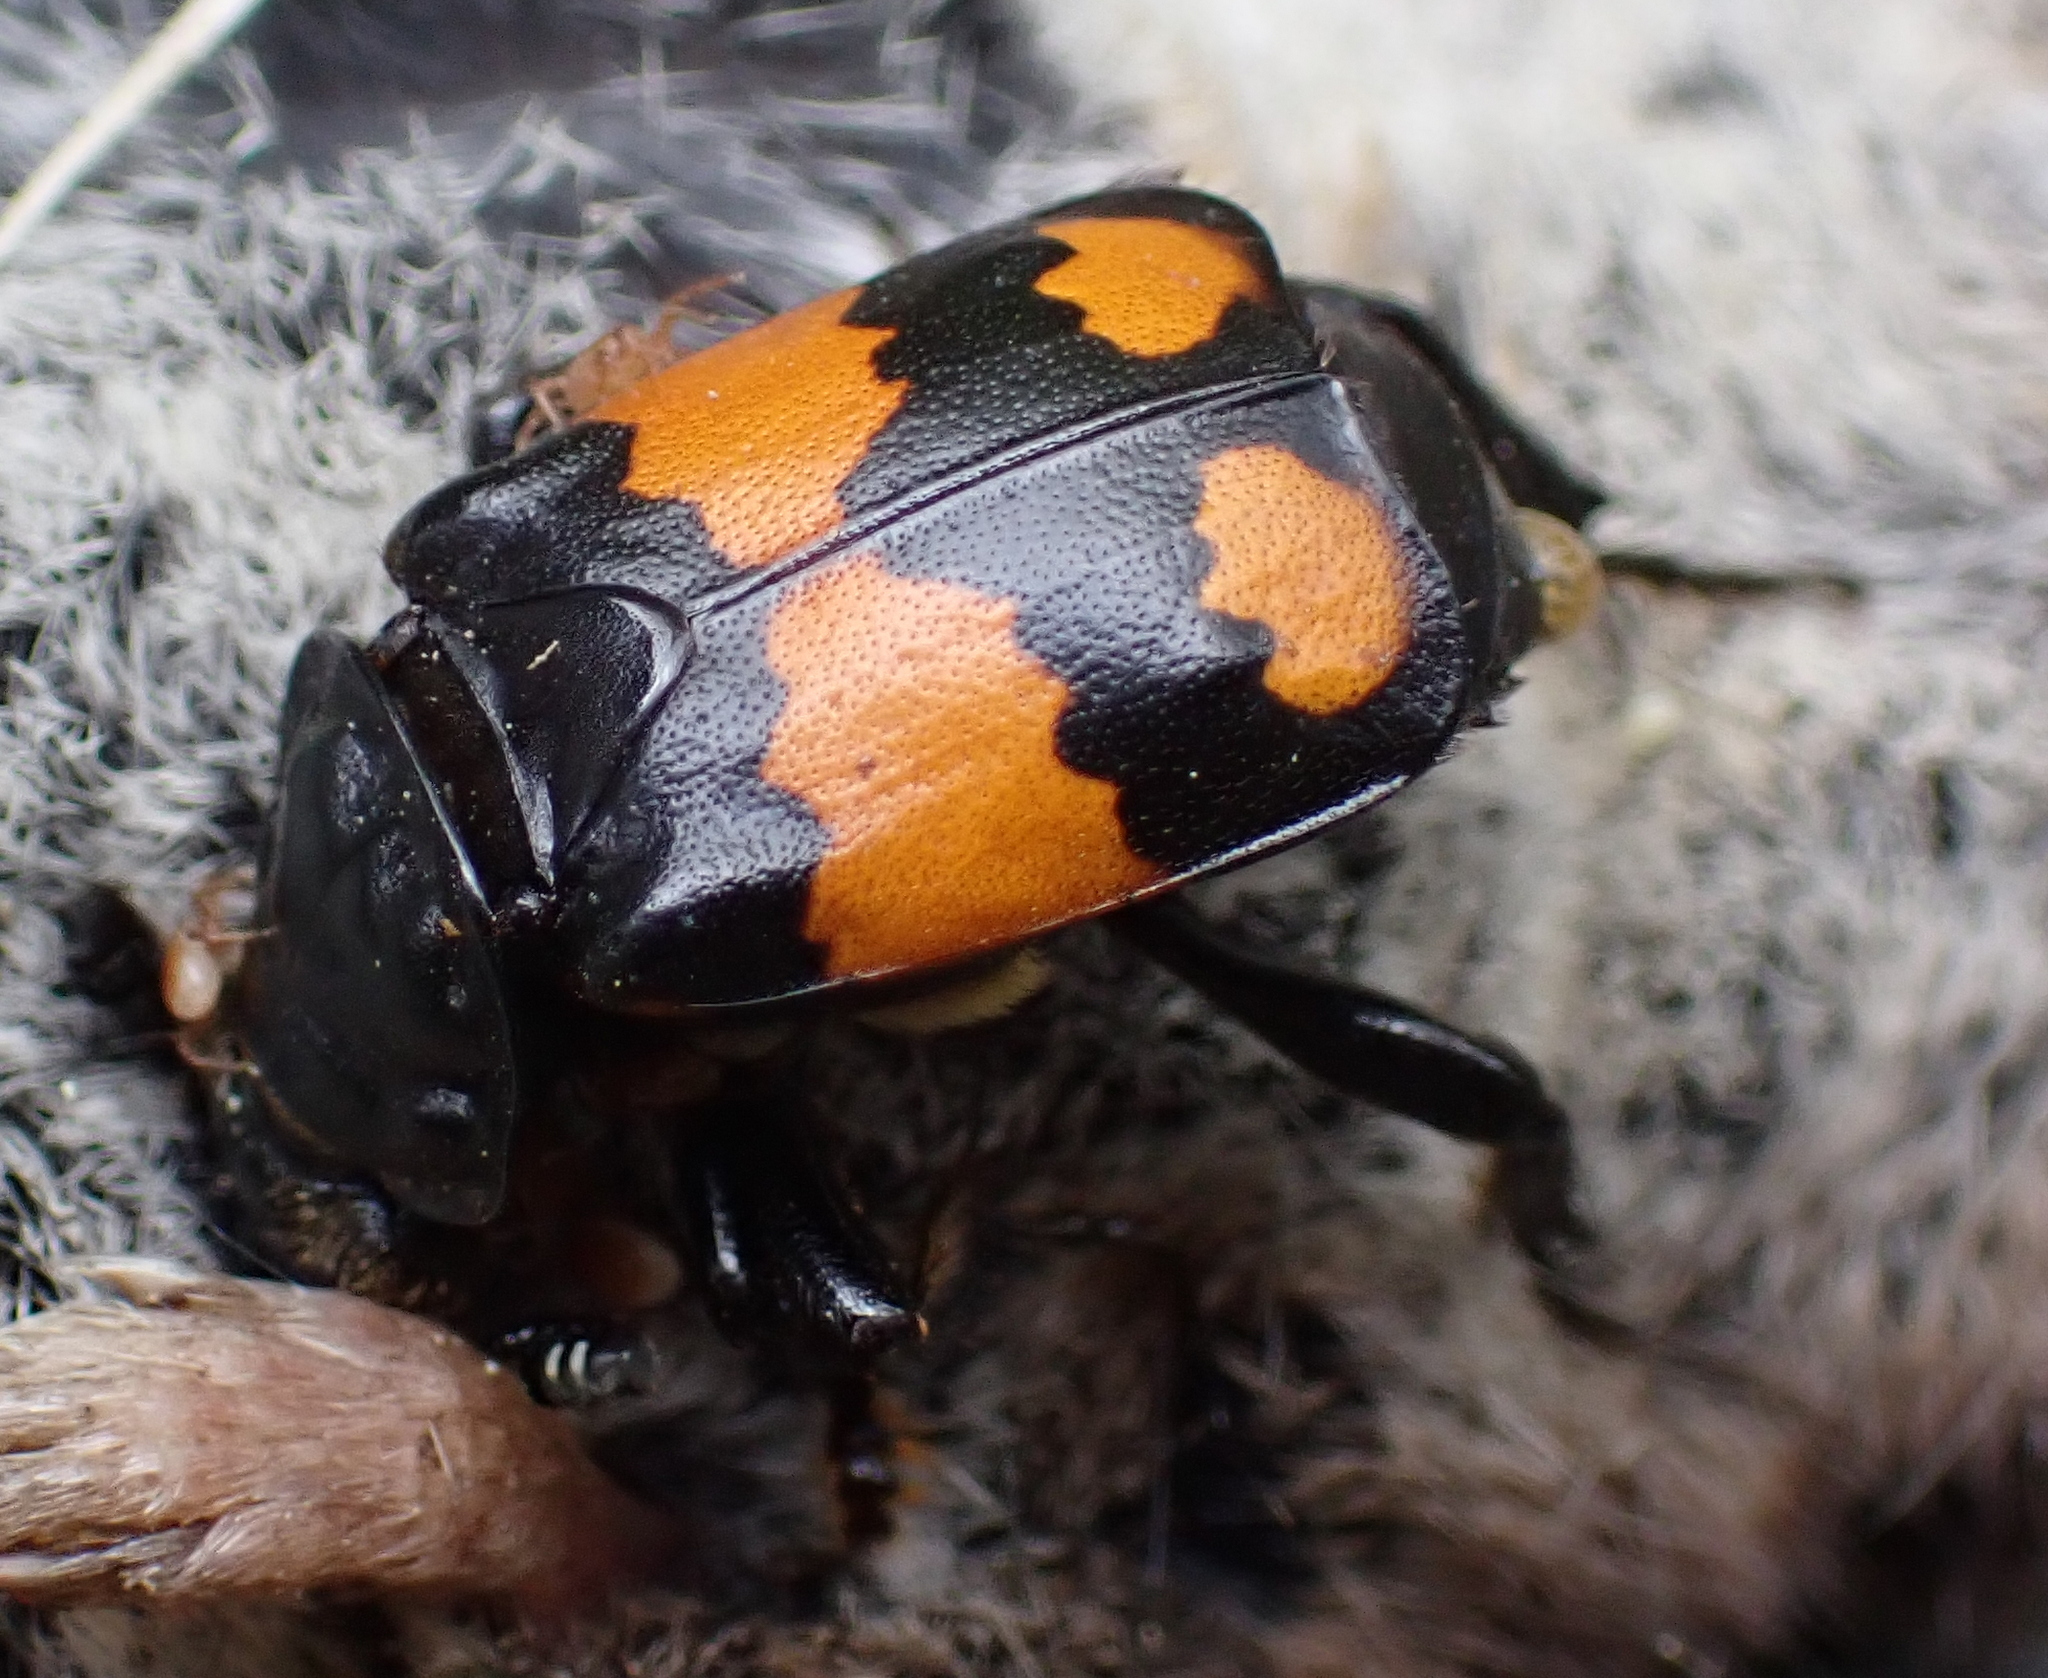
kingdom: Animalia
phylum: Arthropoda
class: Insecta
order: Coleoptera
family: Staphylinidae
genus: Nicrophorus
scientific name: Nicrophorus vespilloides
